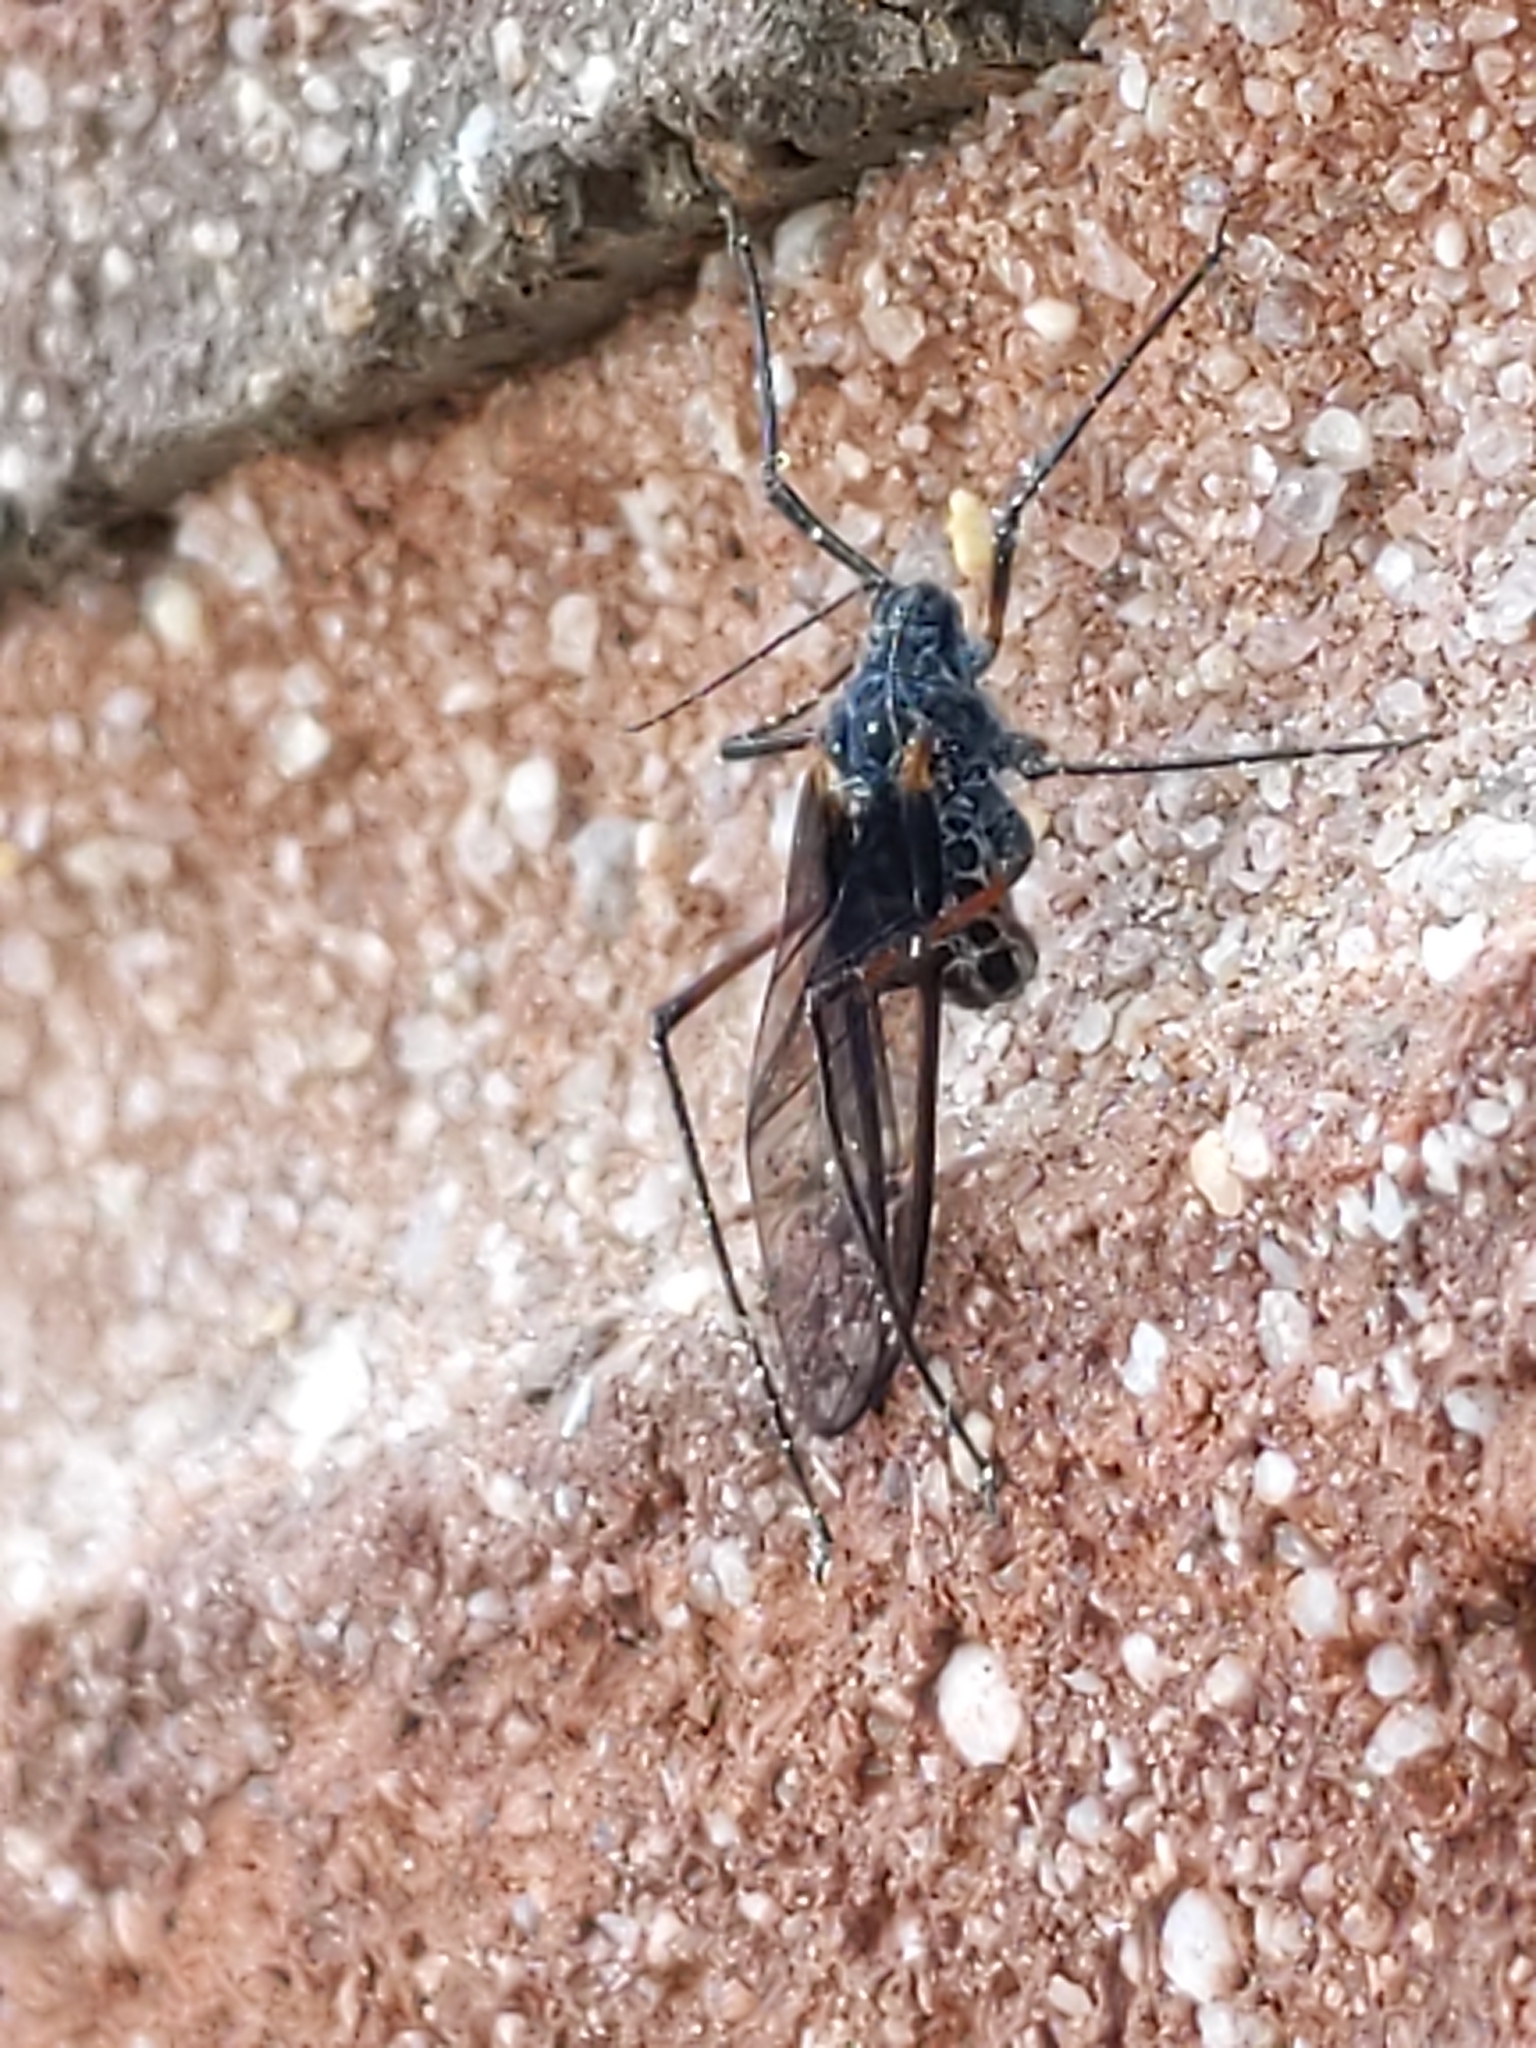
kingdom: Animalia
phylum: Arthropoda
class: Insecta
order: Hemiptera
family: Aphididae
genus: Longistigma
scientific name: Longistigma caryae
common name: Giant bark aphid
